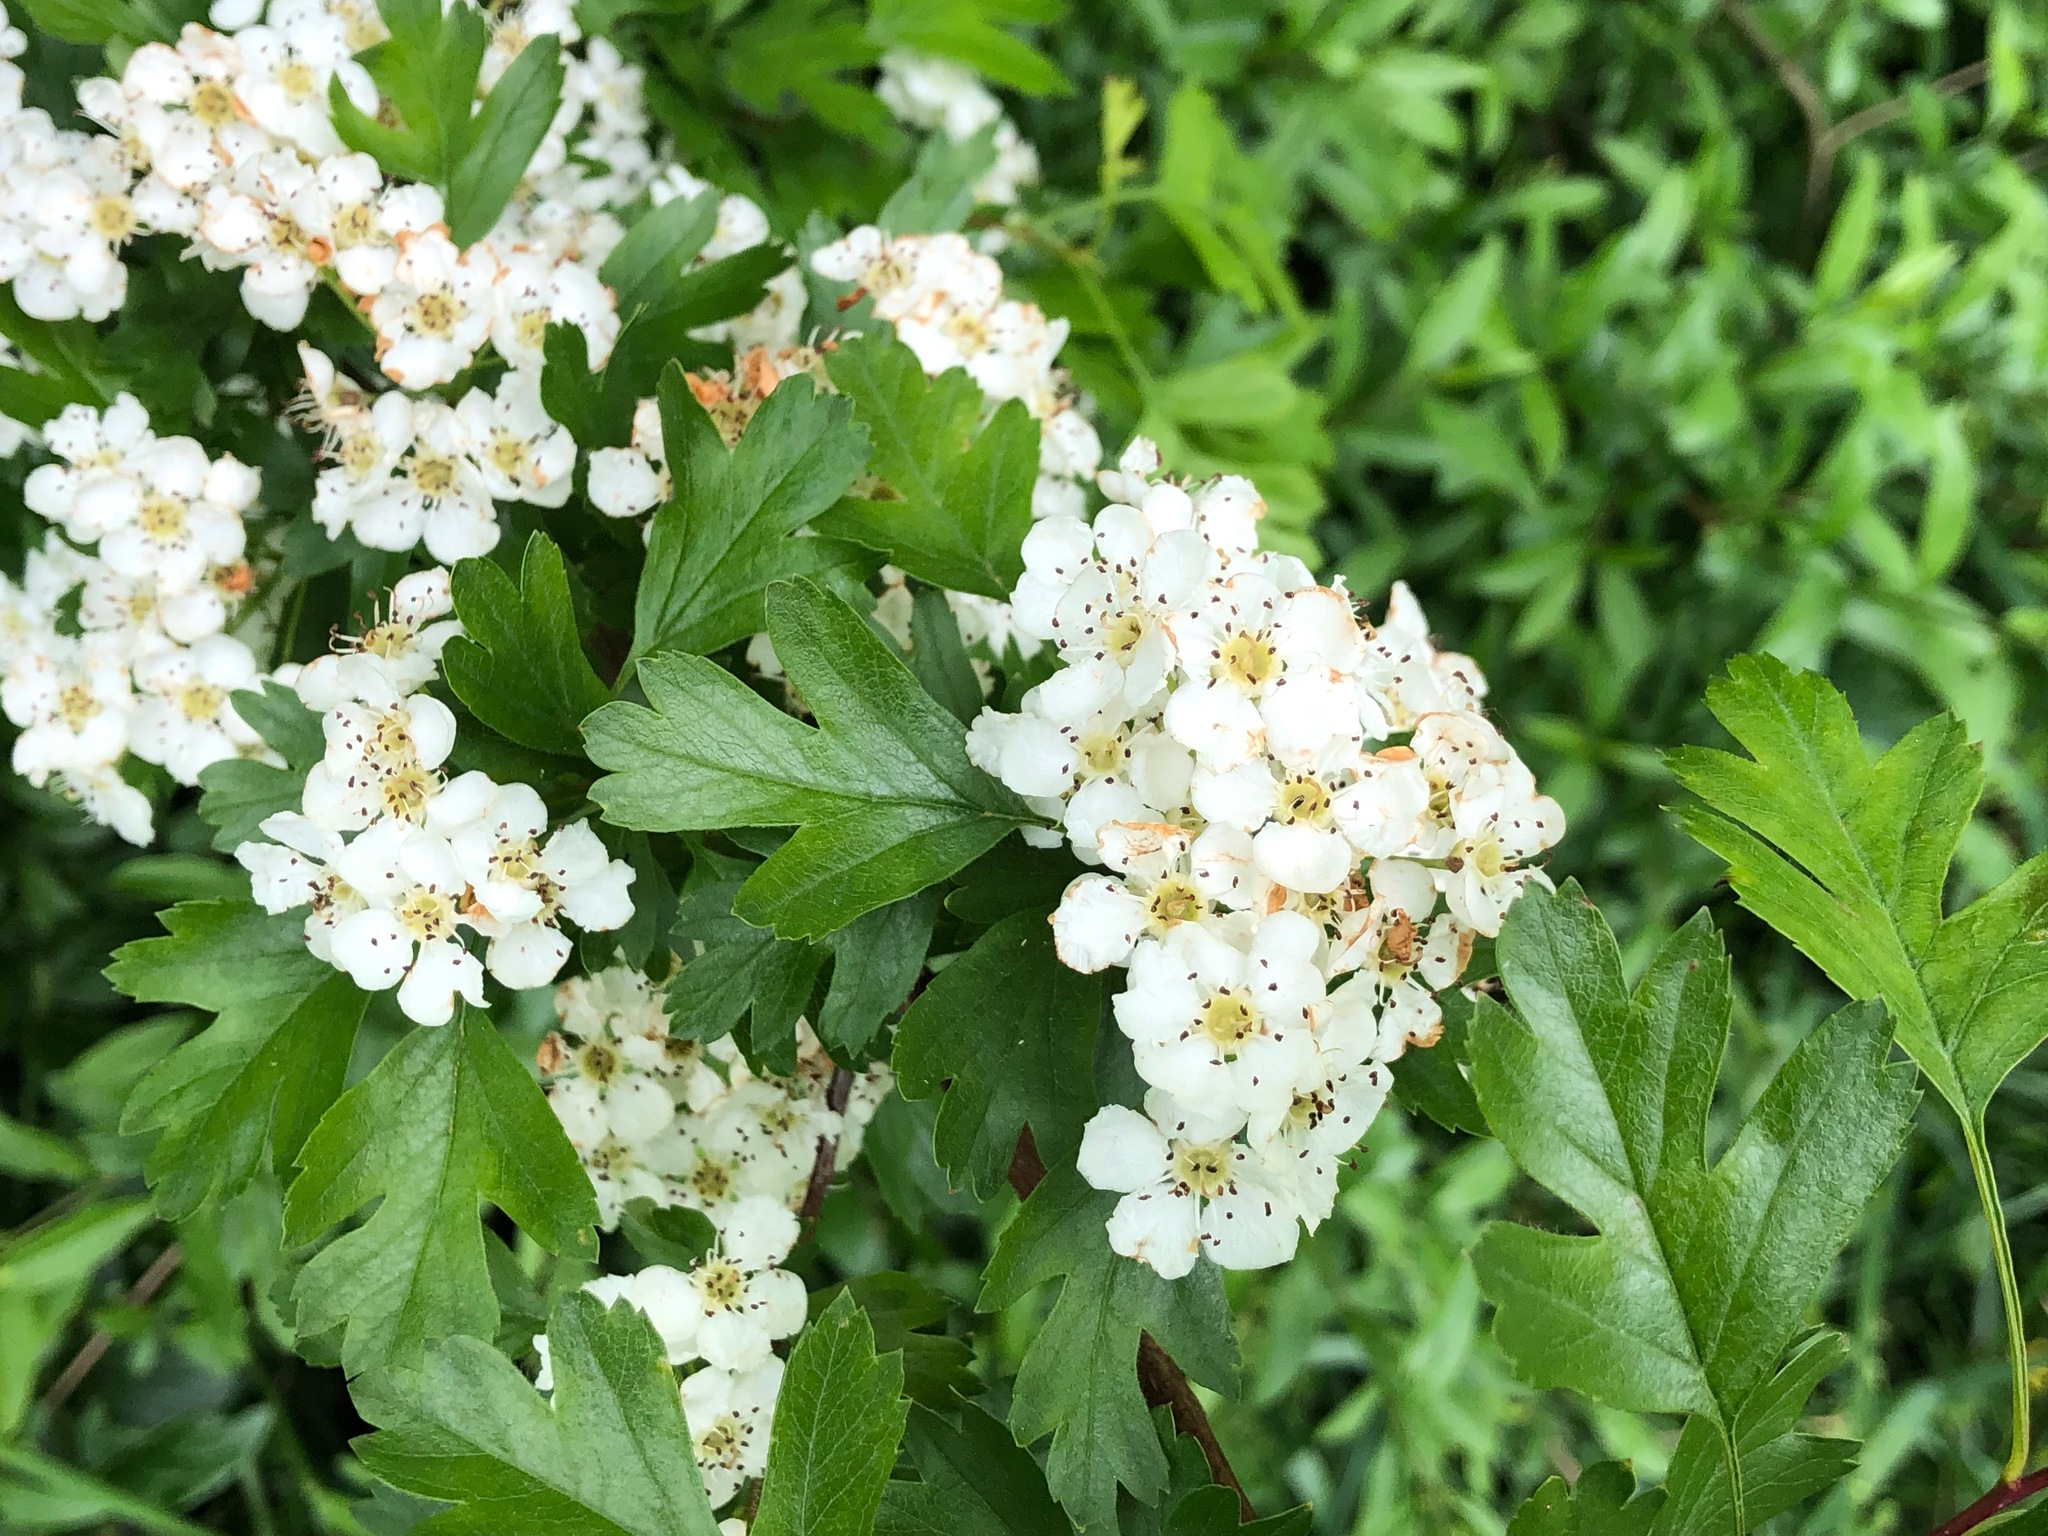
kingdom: Plantae
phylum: Tracheophyta
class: Magnoliopsida
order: Rosales
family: Rosaceae
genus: Crataegus
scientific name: Crataegus monogyna
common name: Hawthorn
